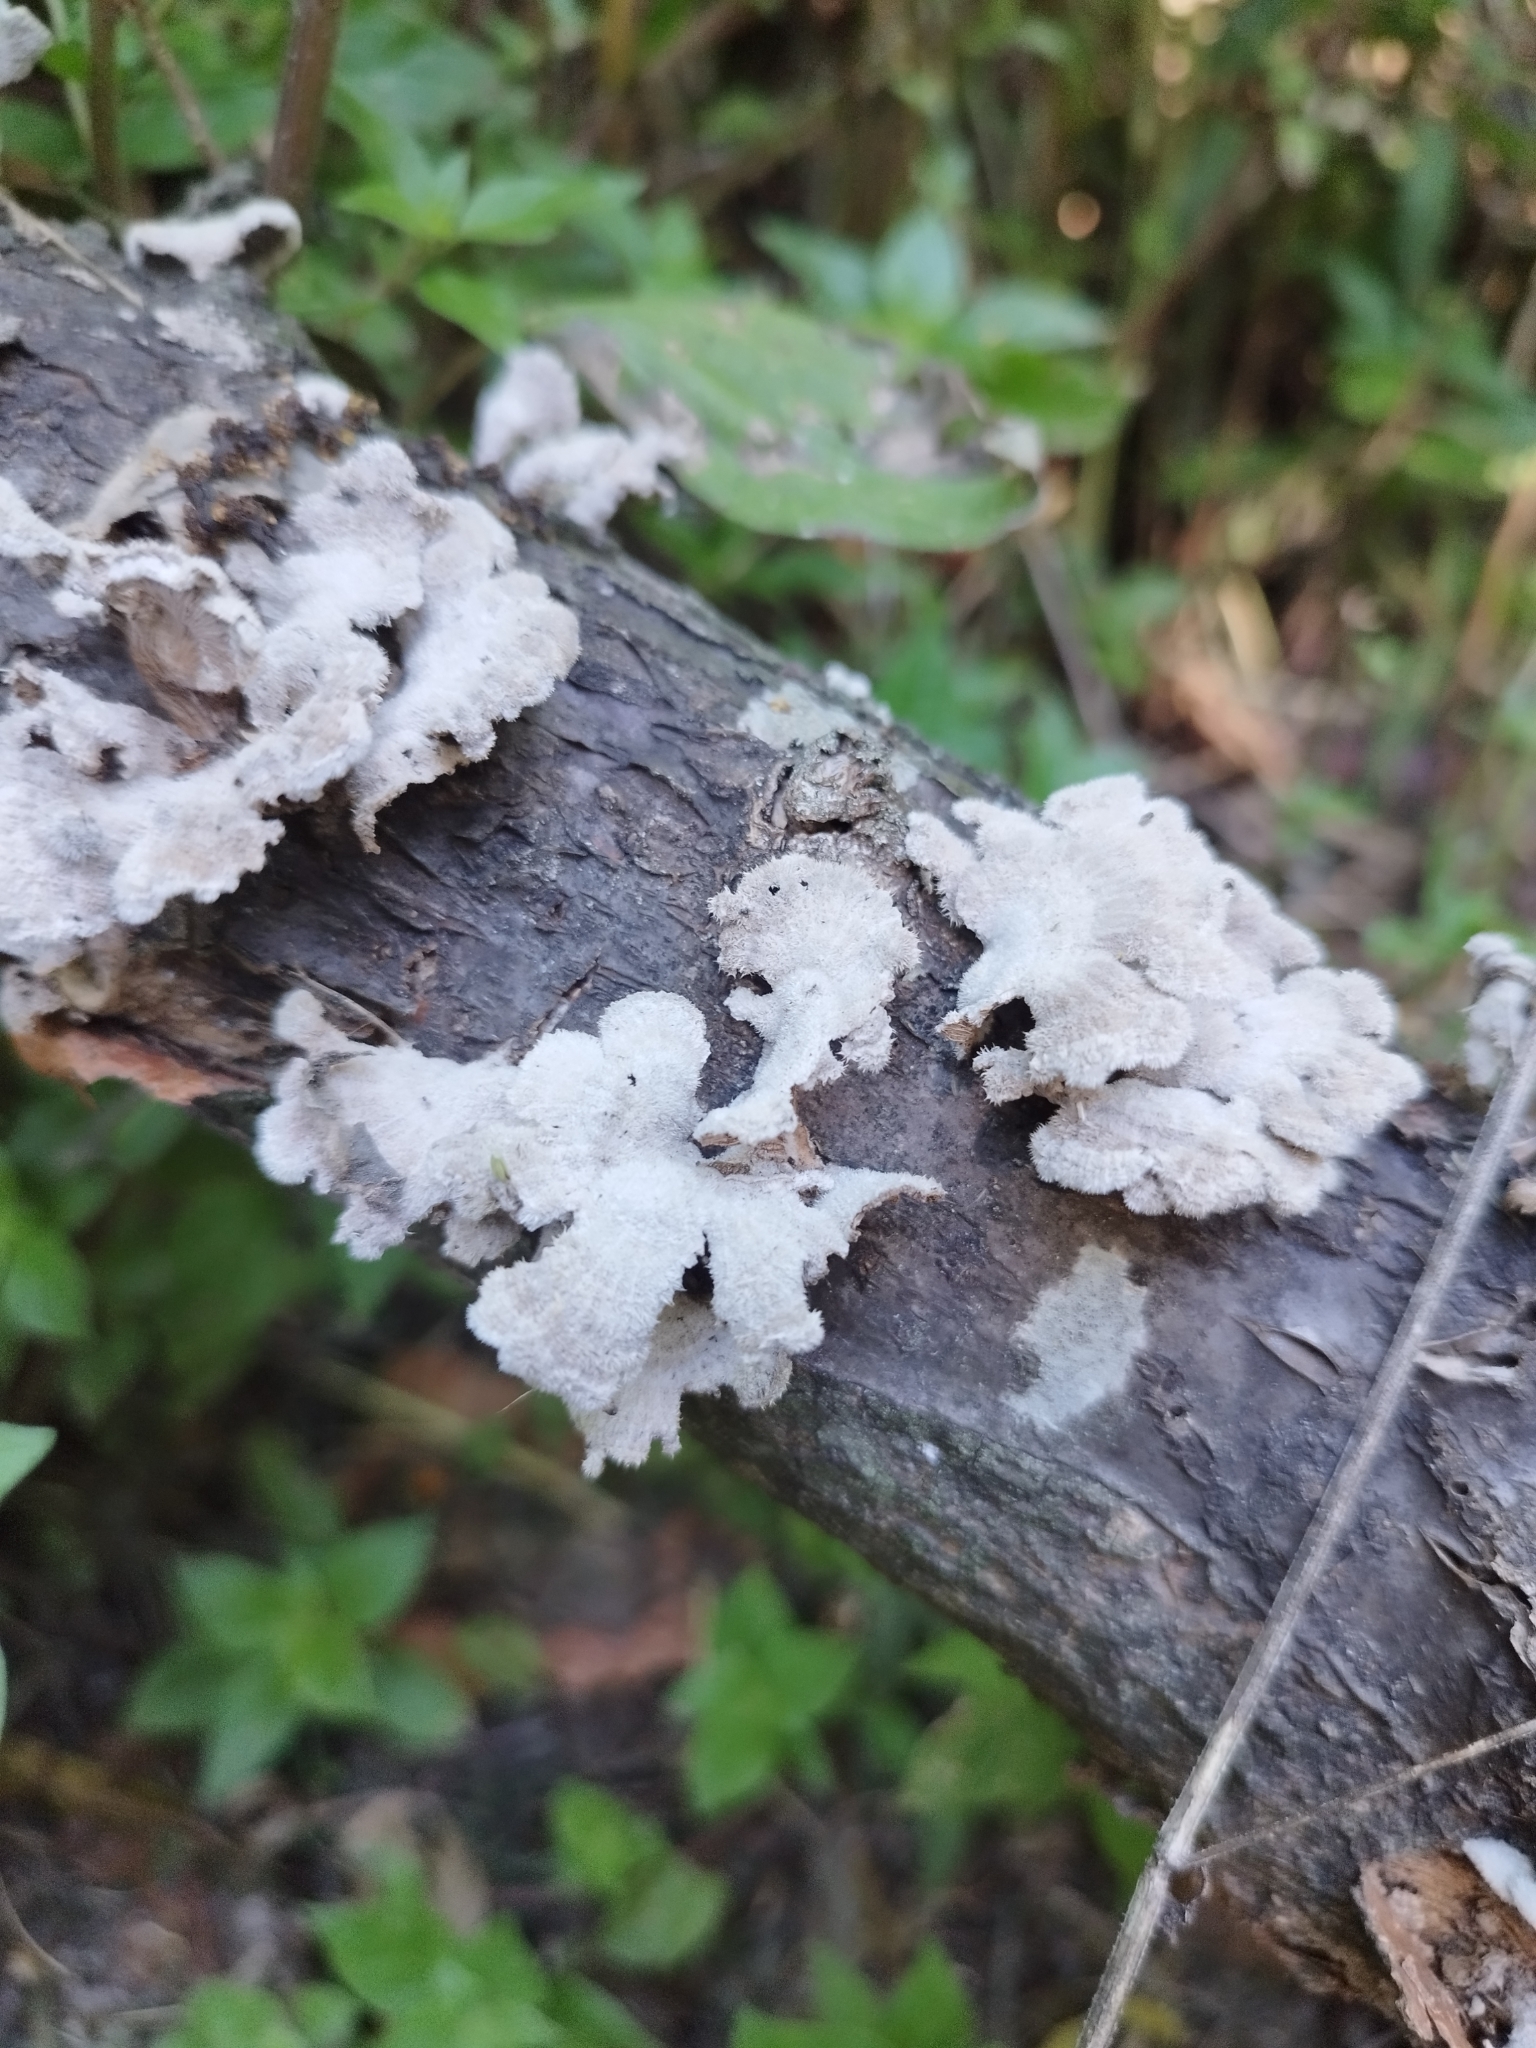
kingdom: Fungi
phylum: Basidiomycota
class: Agaricomycetes
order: Agaricales
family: Schizophyllaceae
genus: Schizophyllum
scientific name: Schizophyllum commune
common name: Common porecrust
